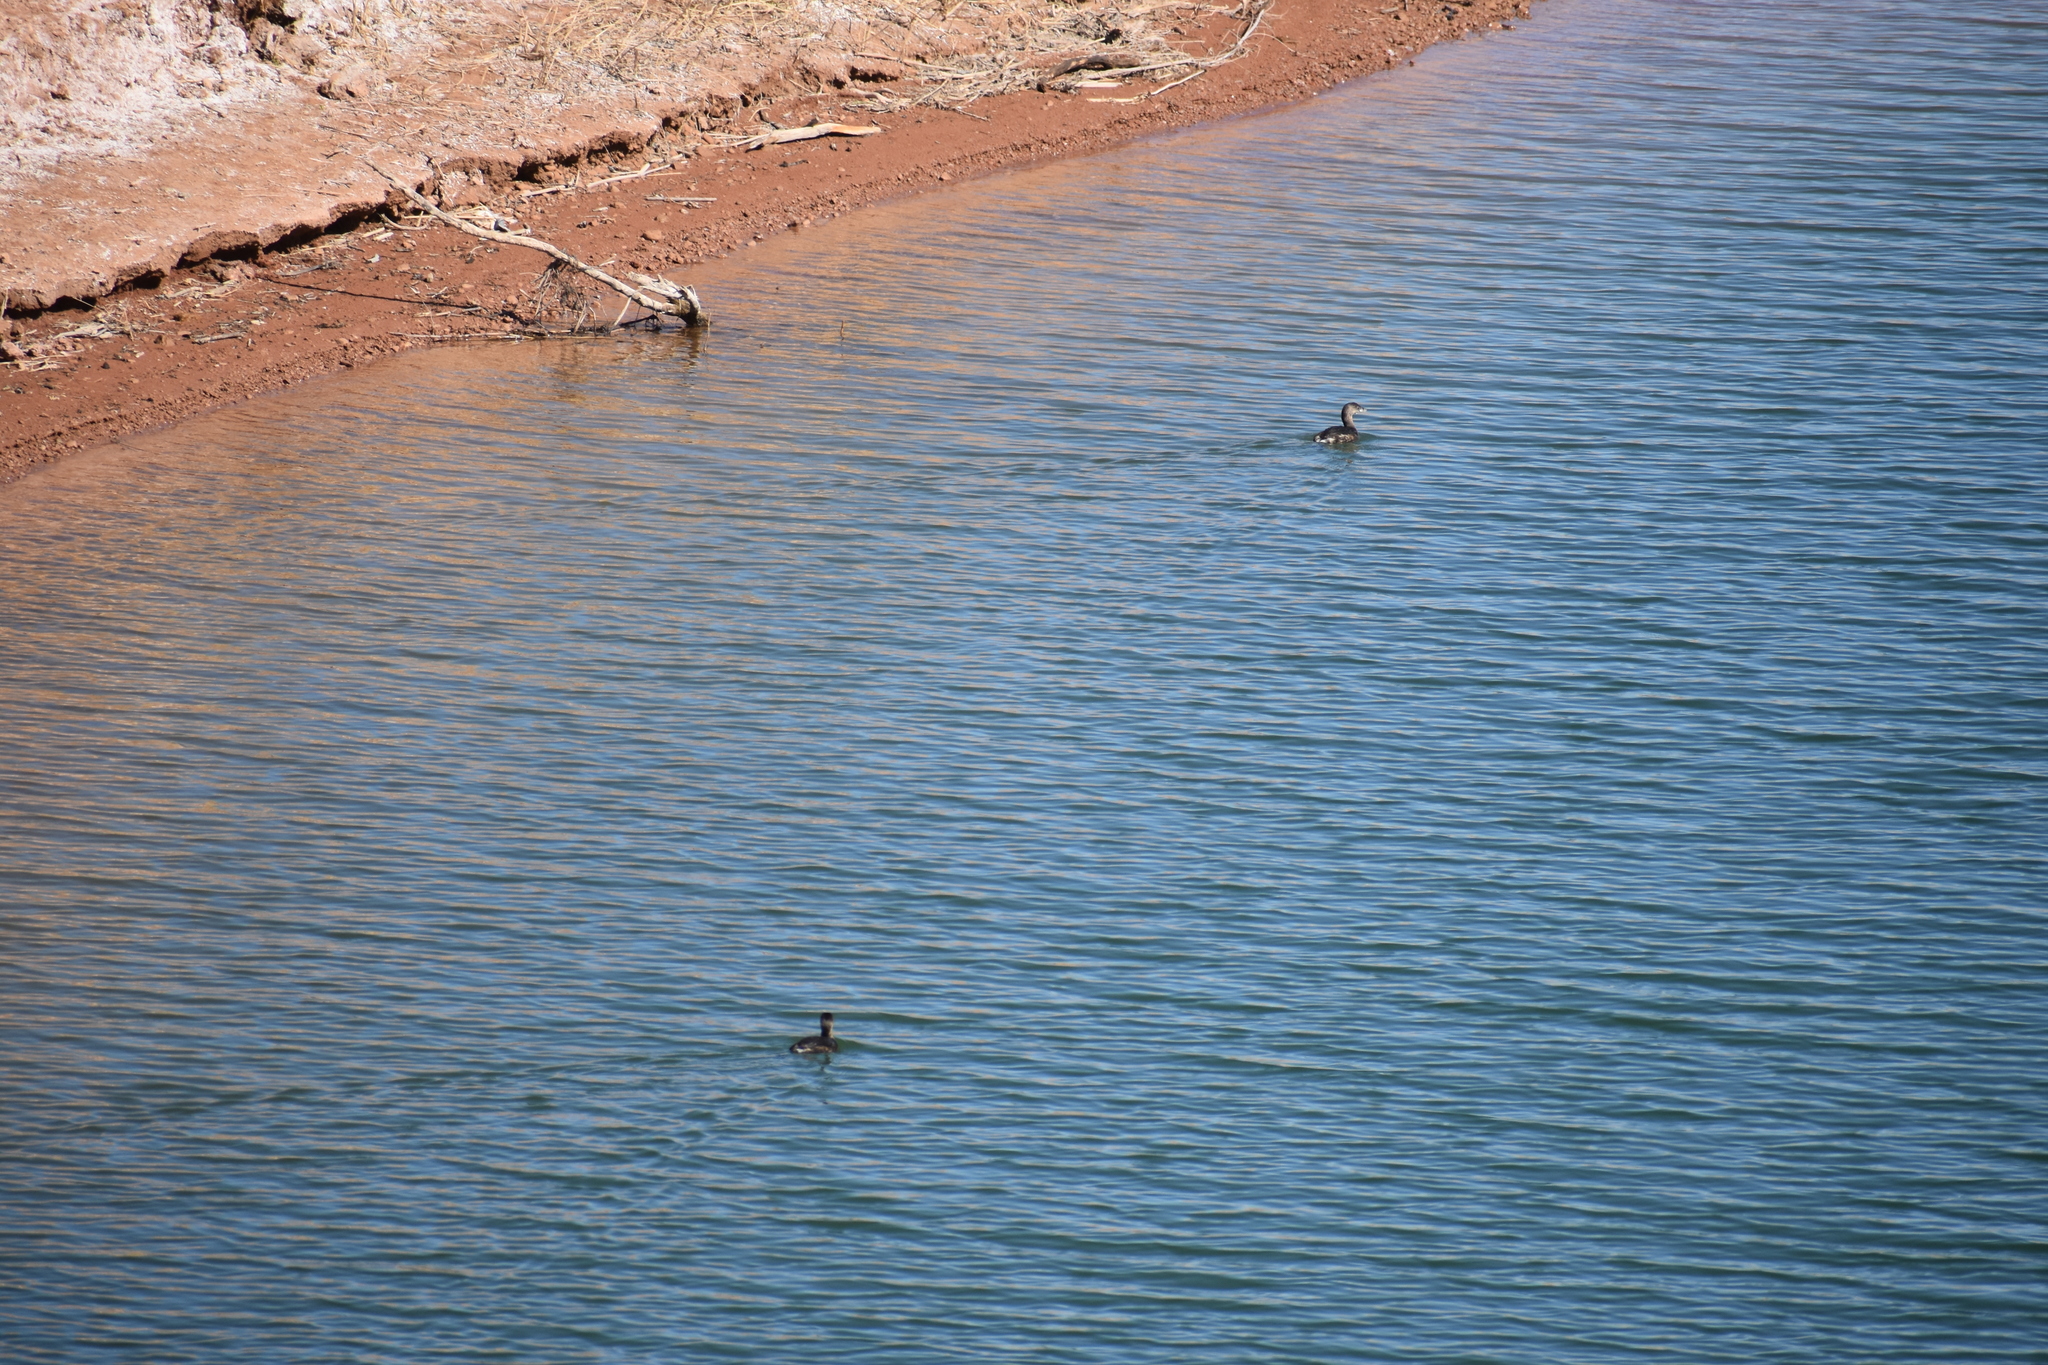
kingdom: Animalia
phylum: Chordata
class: Aves
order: Podicipediformes
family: Podicipedidae
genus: Podilymbus
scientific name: Podilymbus podiceps
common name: Pied-billed grebe
